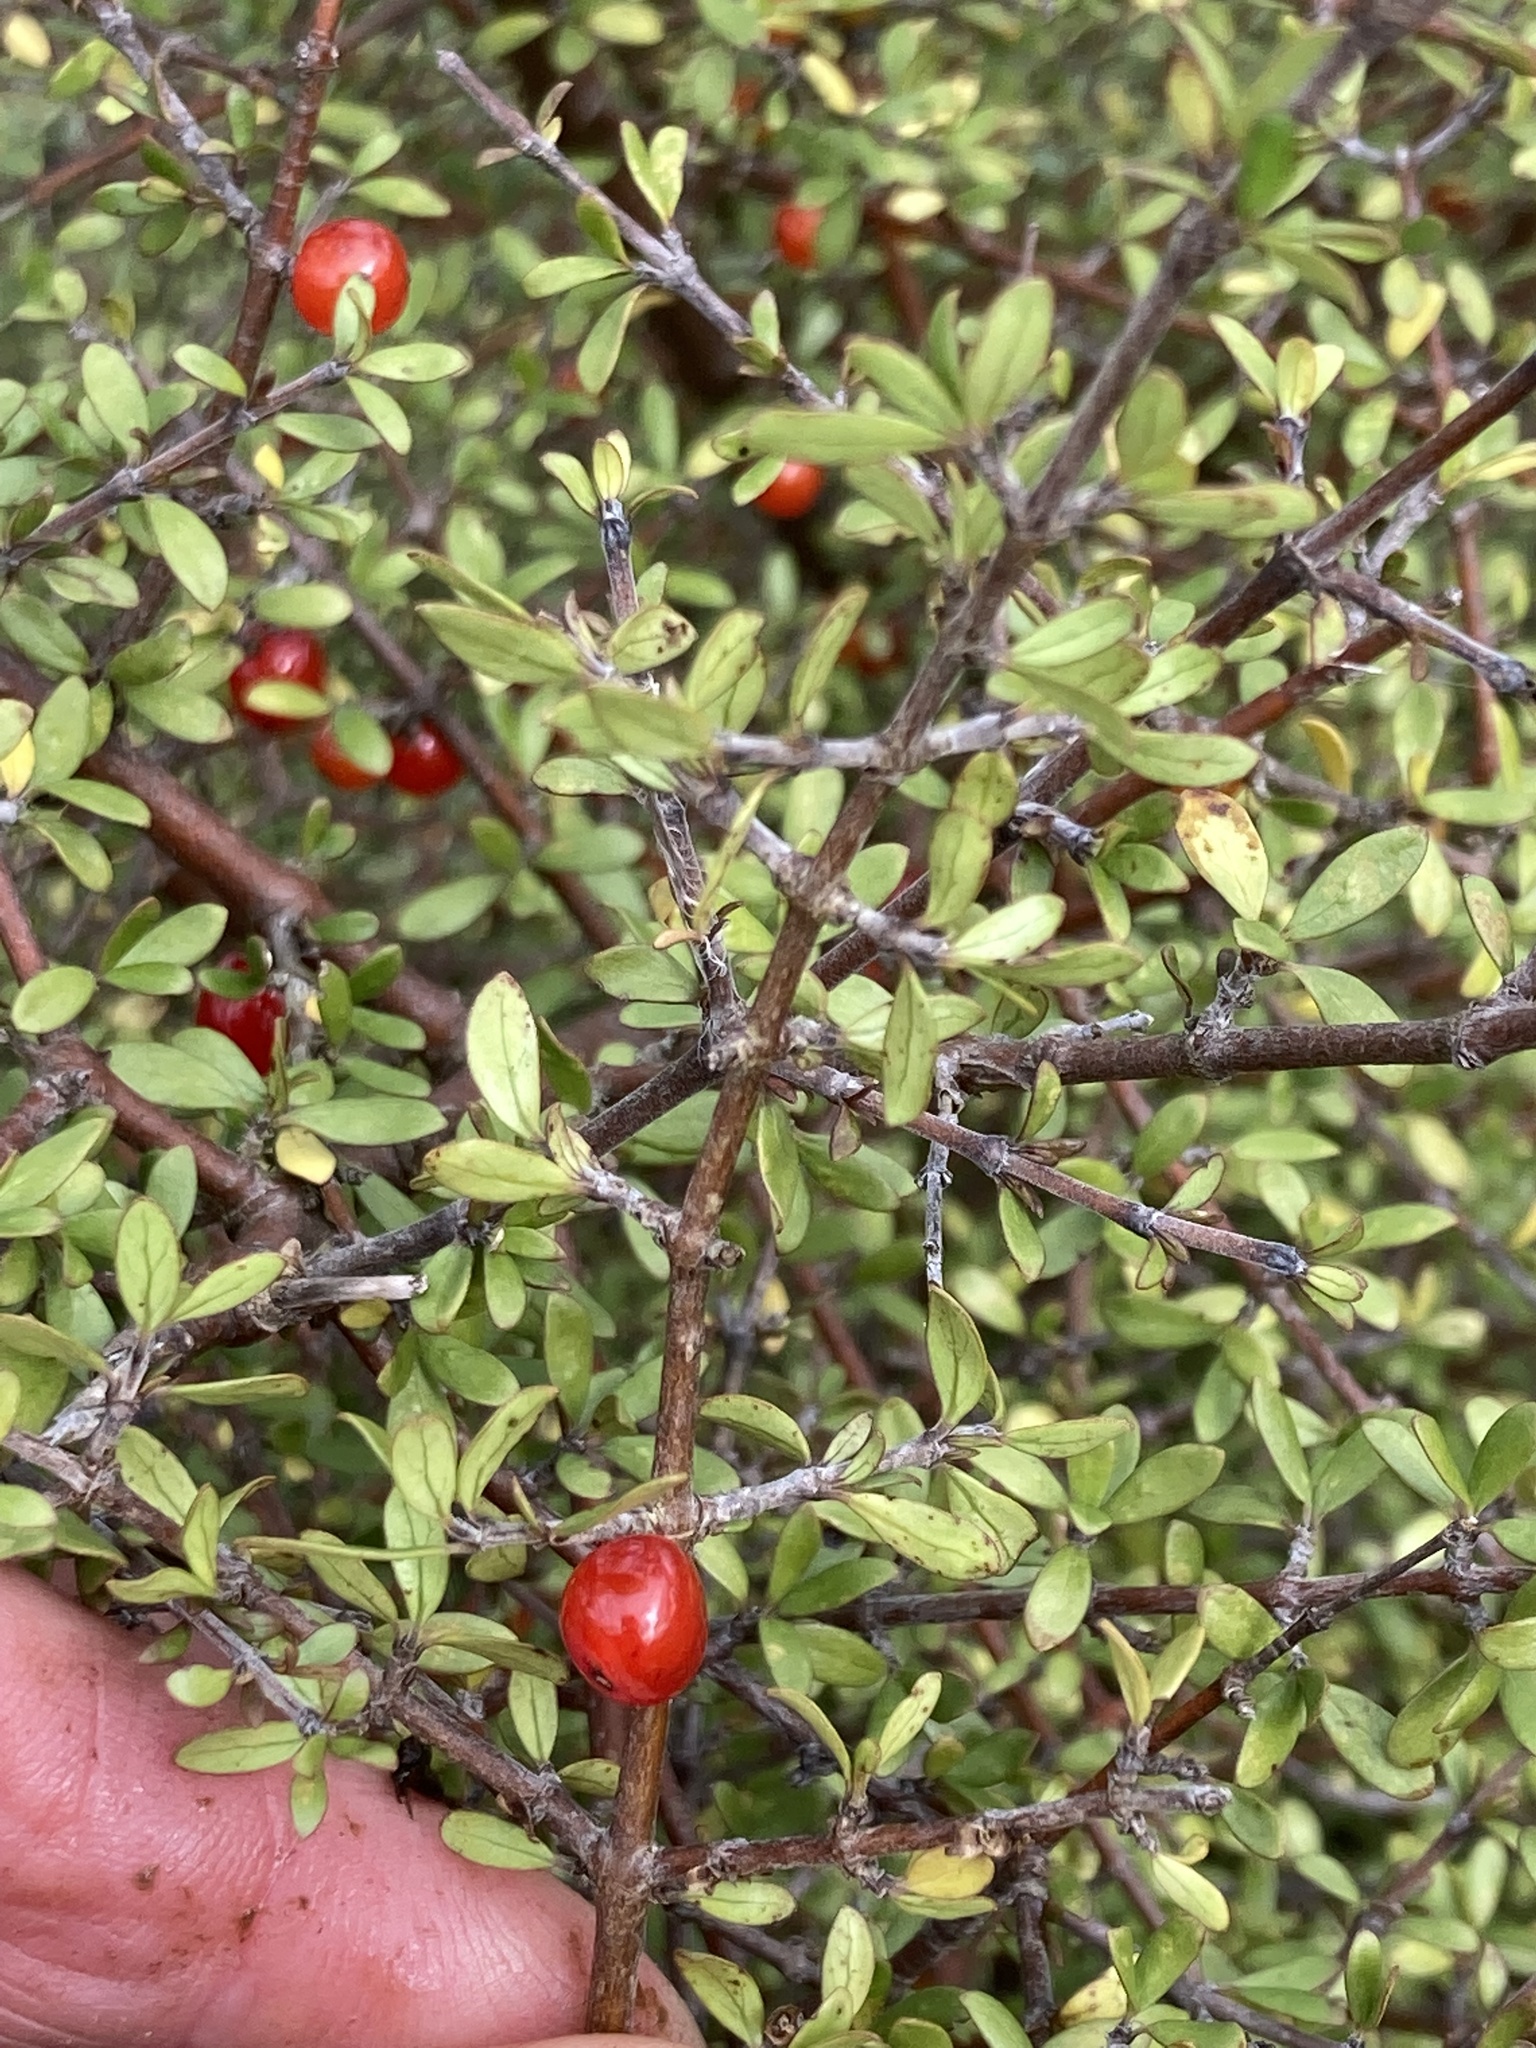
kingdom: Plantae
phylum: Tracheophyta
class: Magnoliopsida
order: Gentianales
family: Rubiaceae
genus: Coprosma
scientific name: Coprosma dumosa
